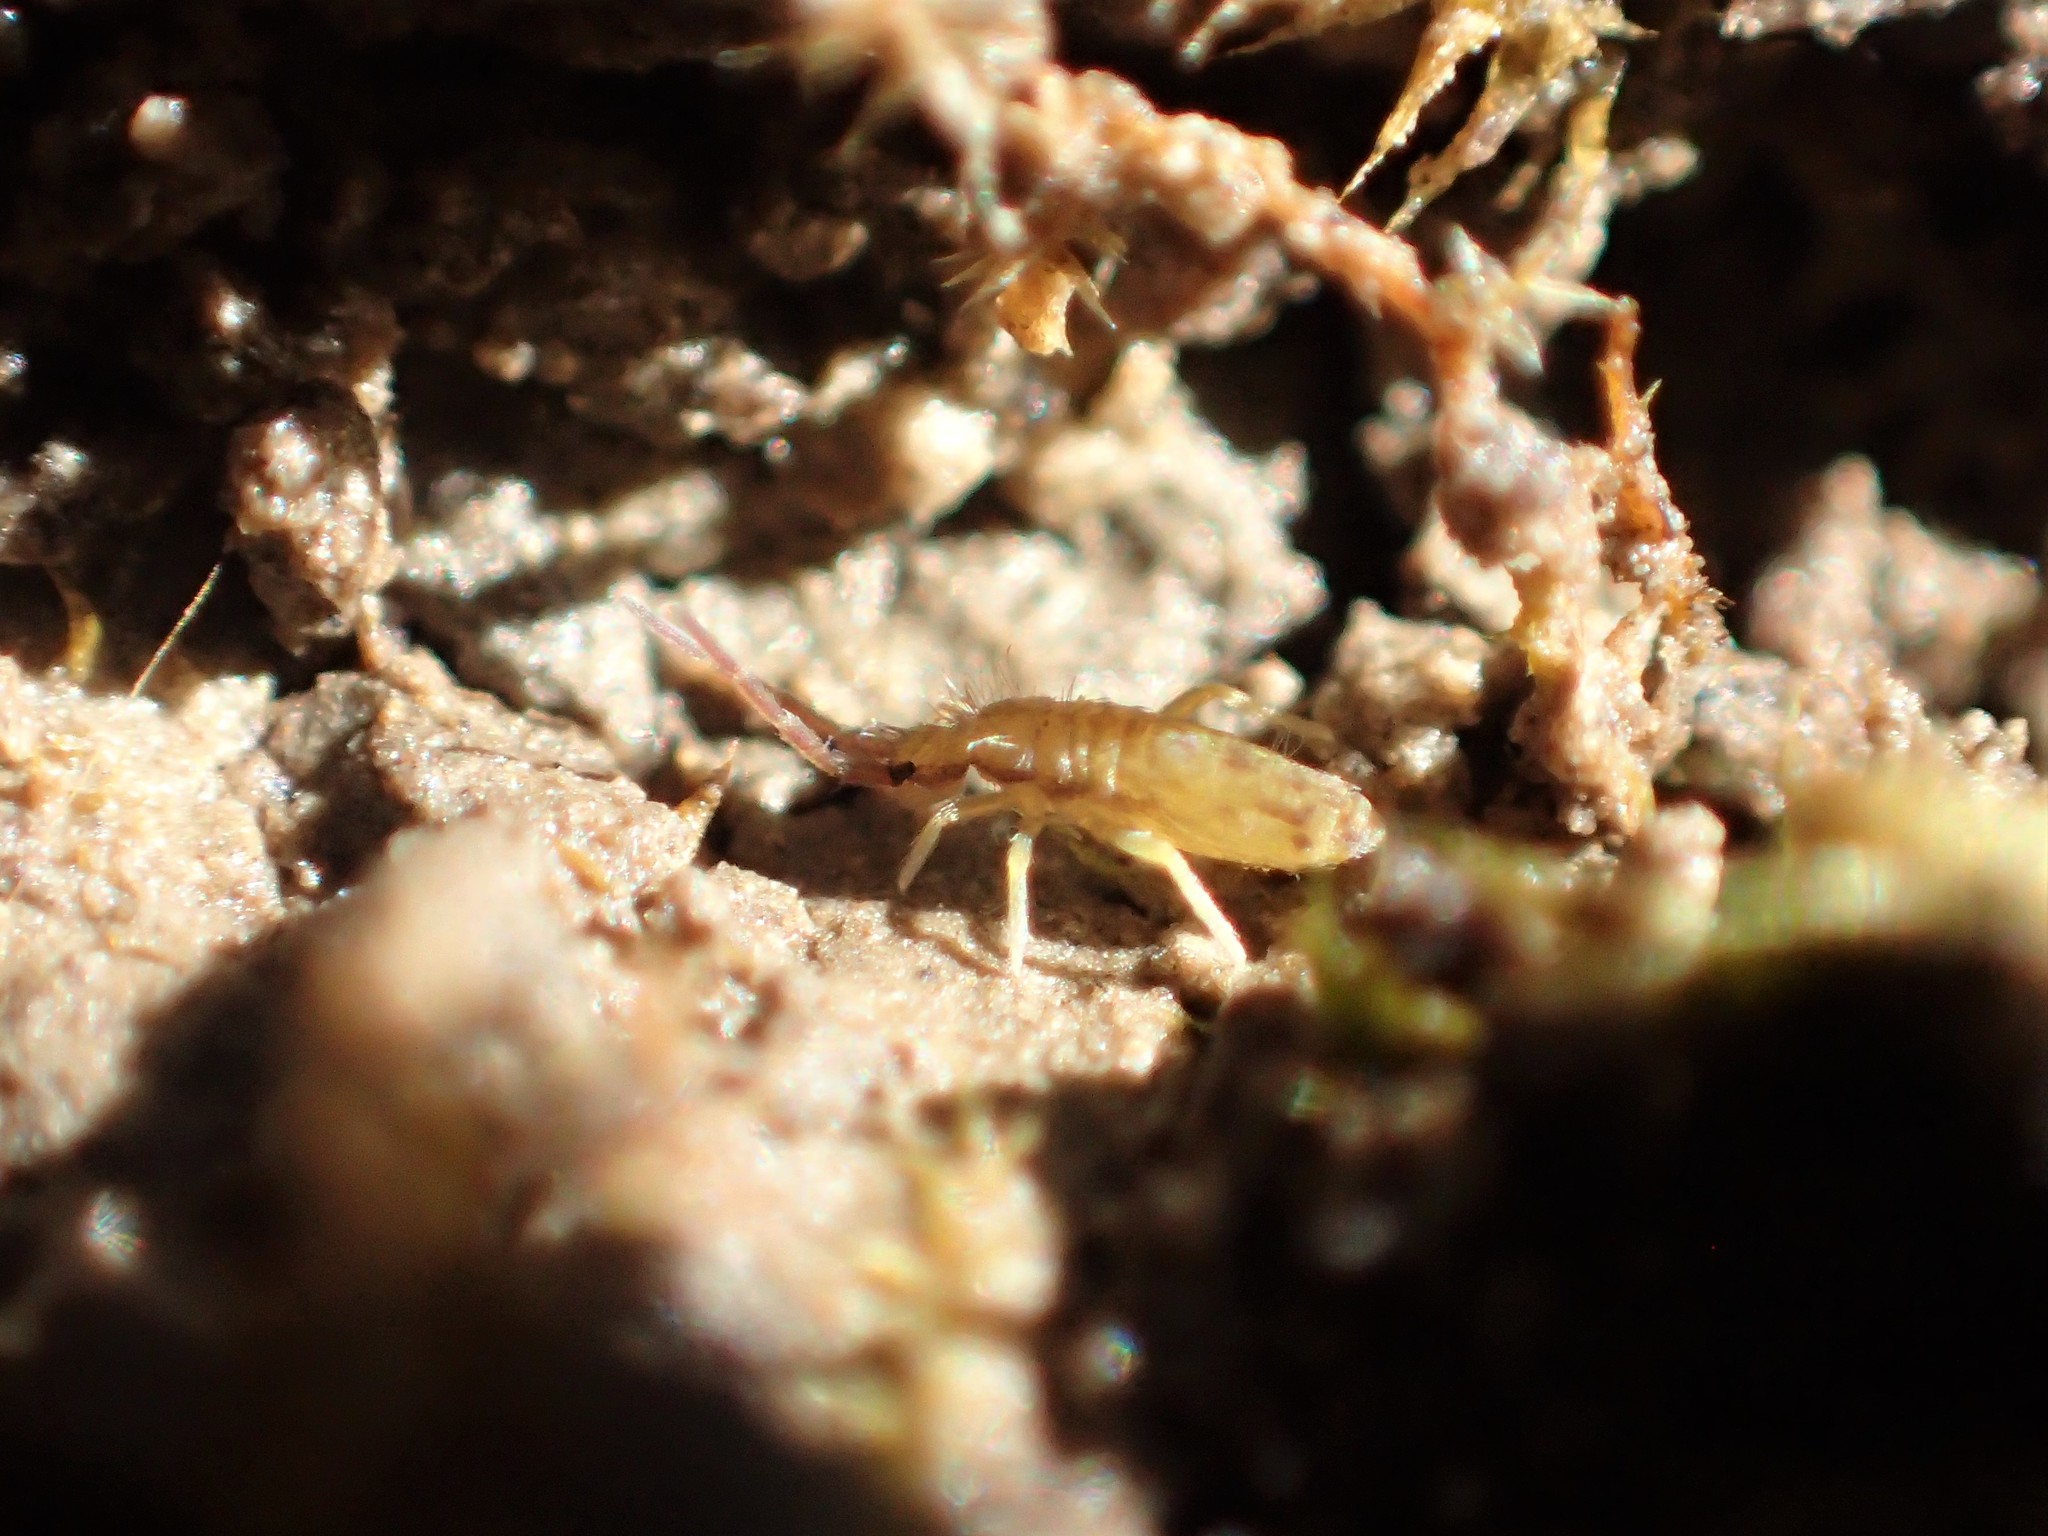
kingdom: Animalia
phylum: Arthropoda
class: Collembola
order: Entomobryomorpha
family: Entomobryidae
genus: Homidia
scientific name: Homidia socia
